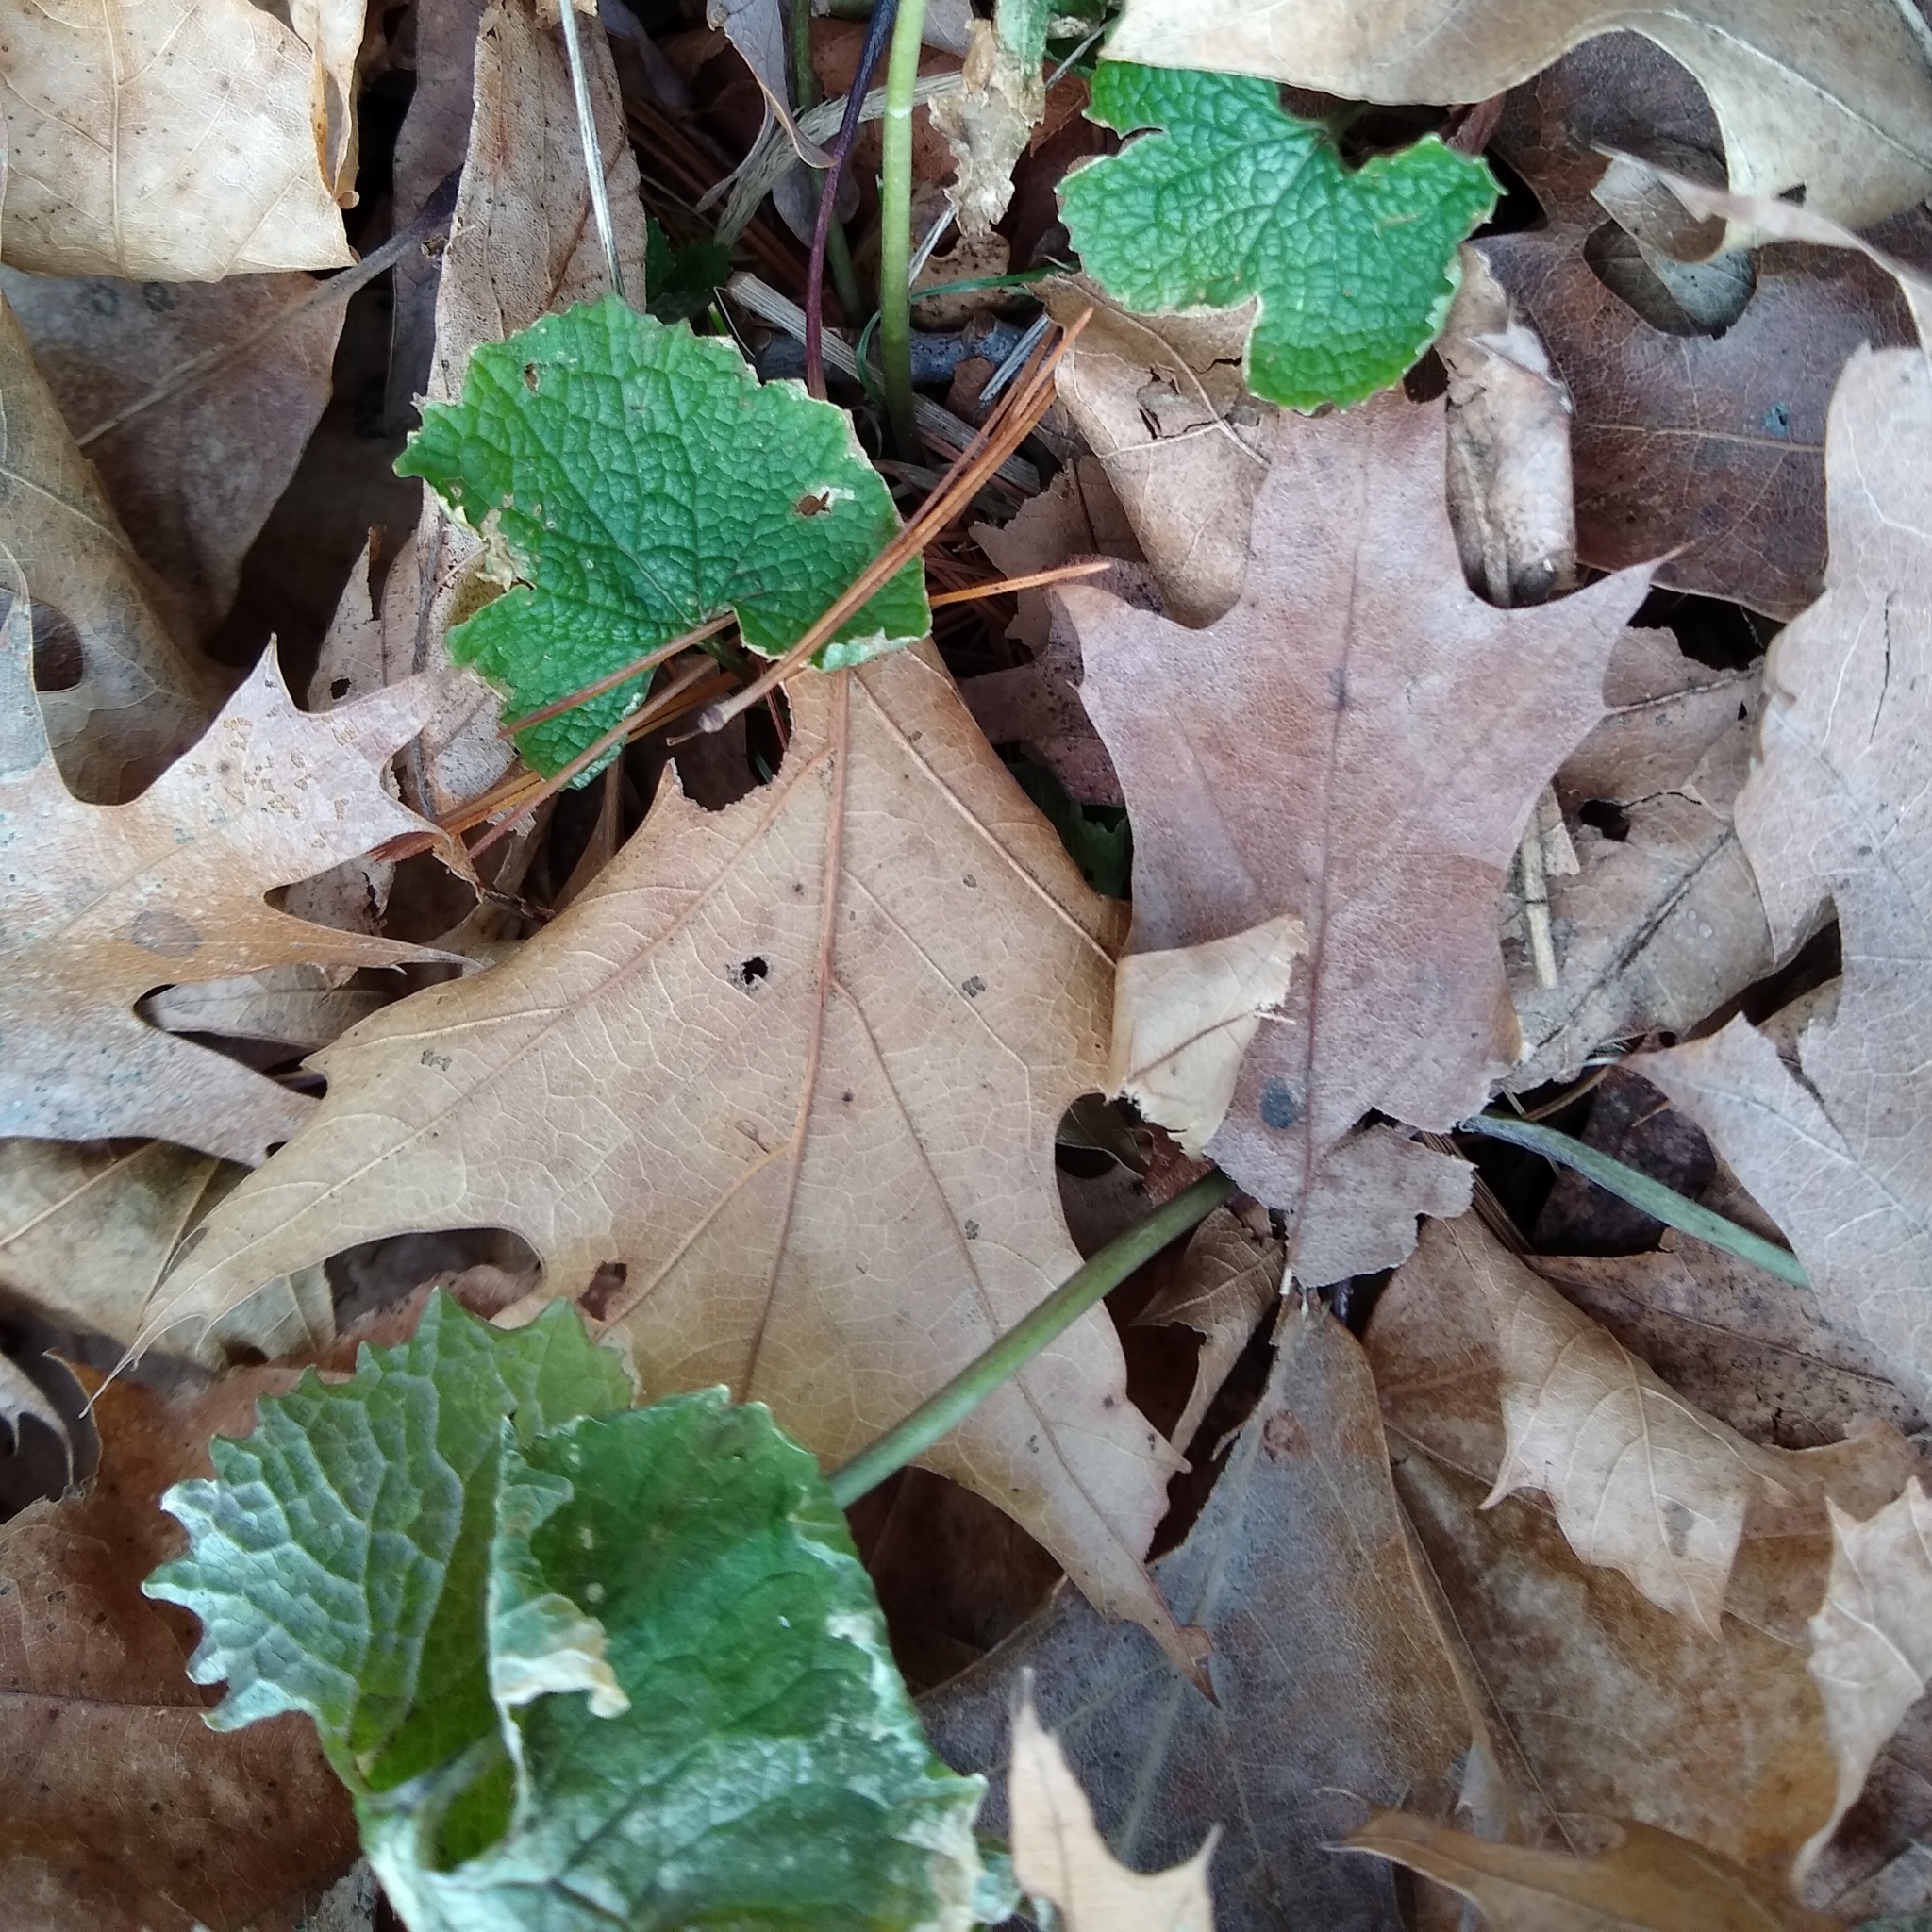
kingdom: Plantae
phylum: Tracheophyta
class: Magnoliopsida
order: Brassicales
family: Brassicaceae
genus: Alliaria
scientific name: Alliaria petiolata
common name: Garlic mustard
